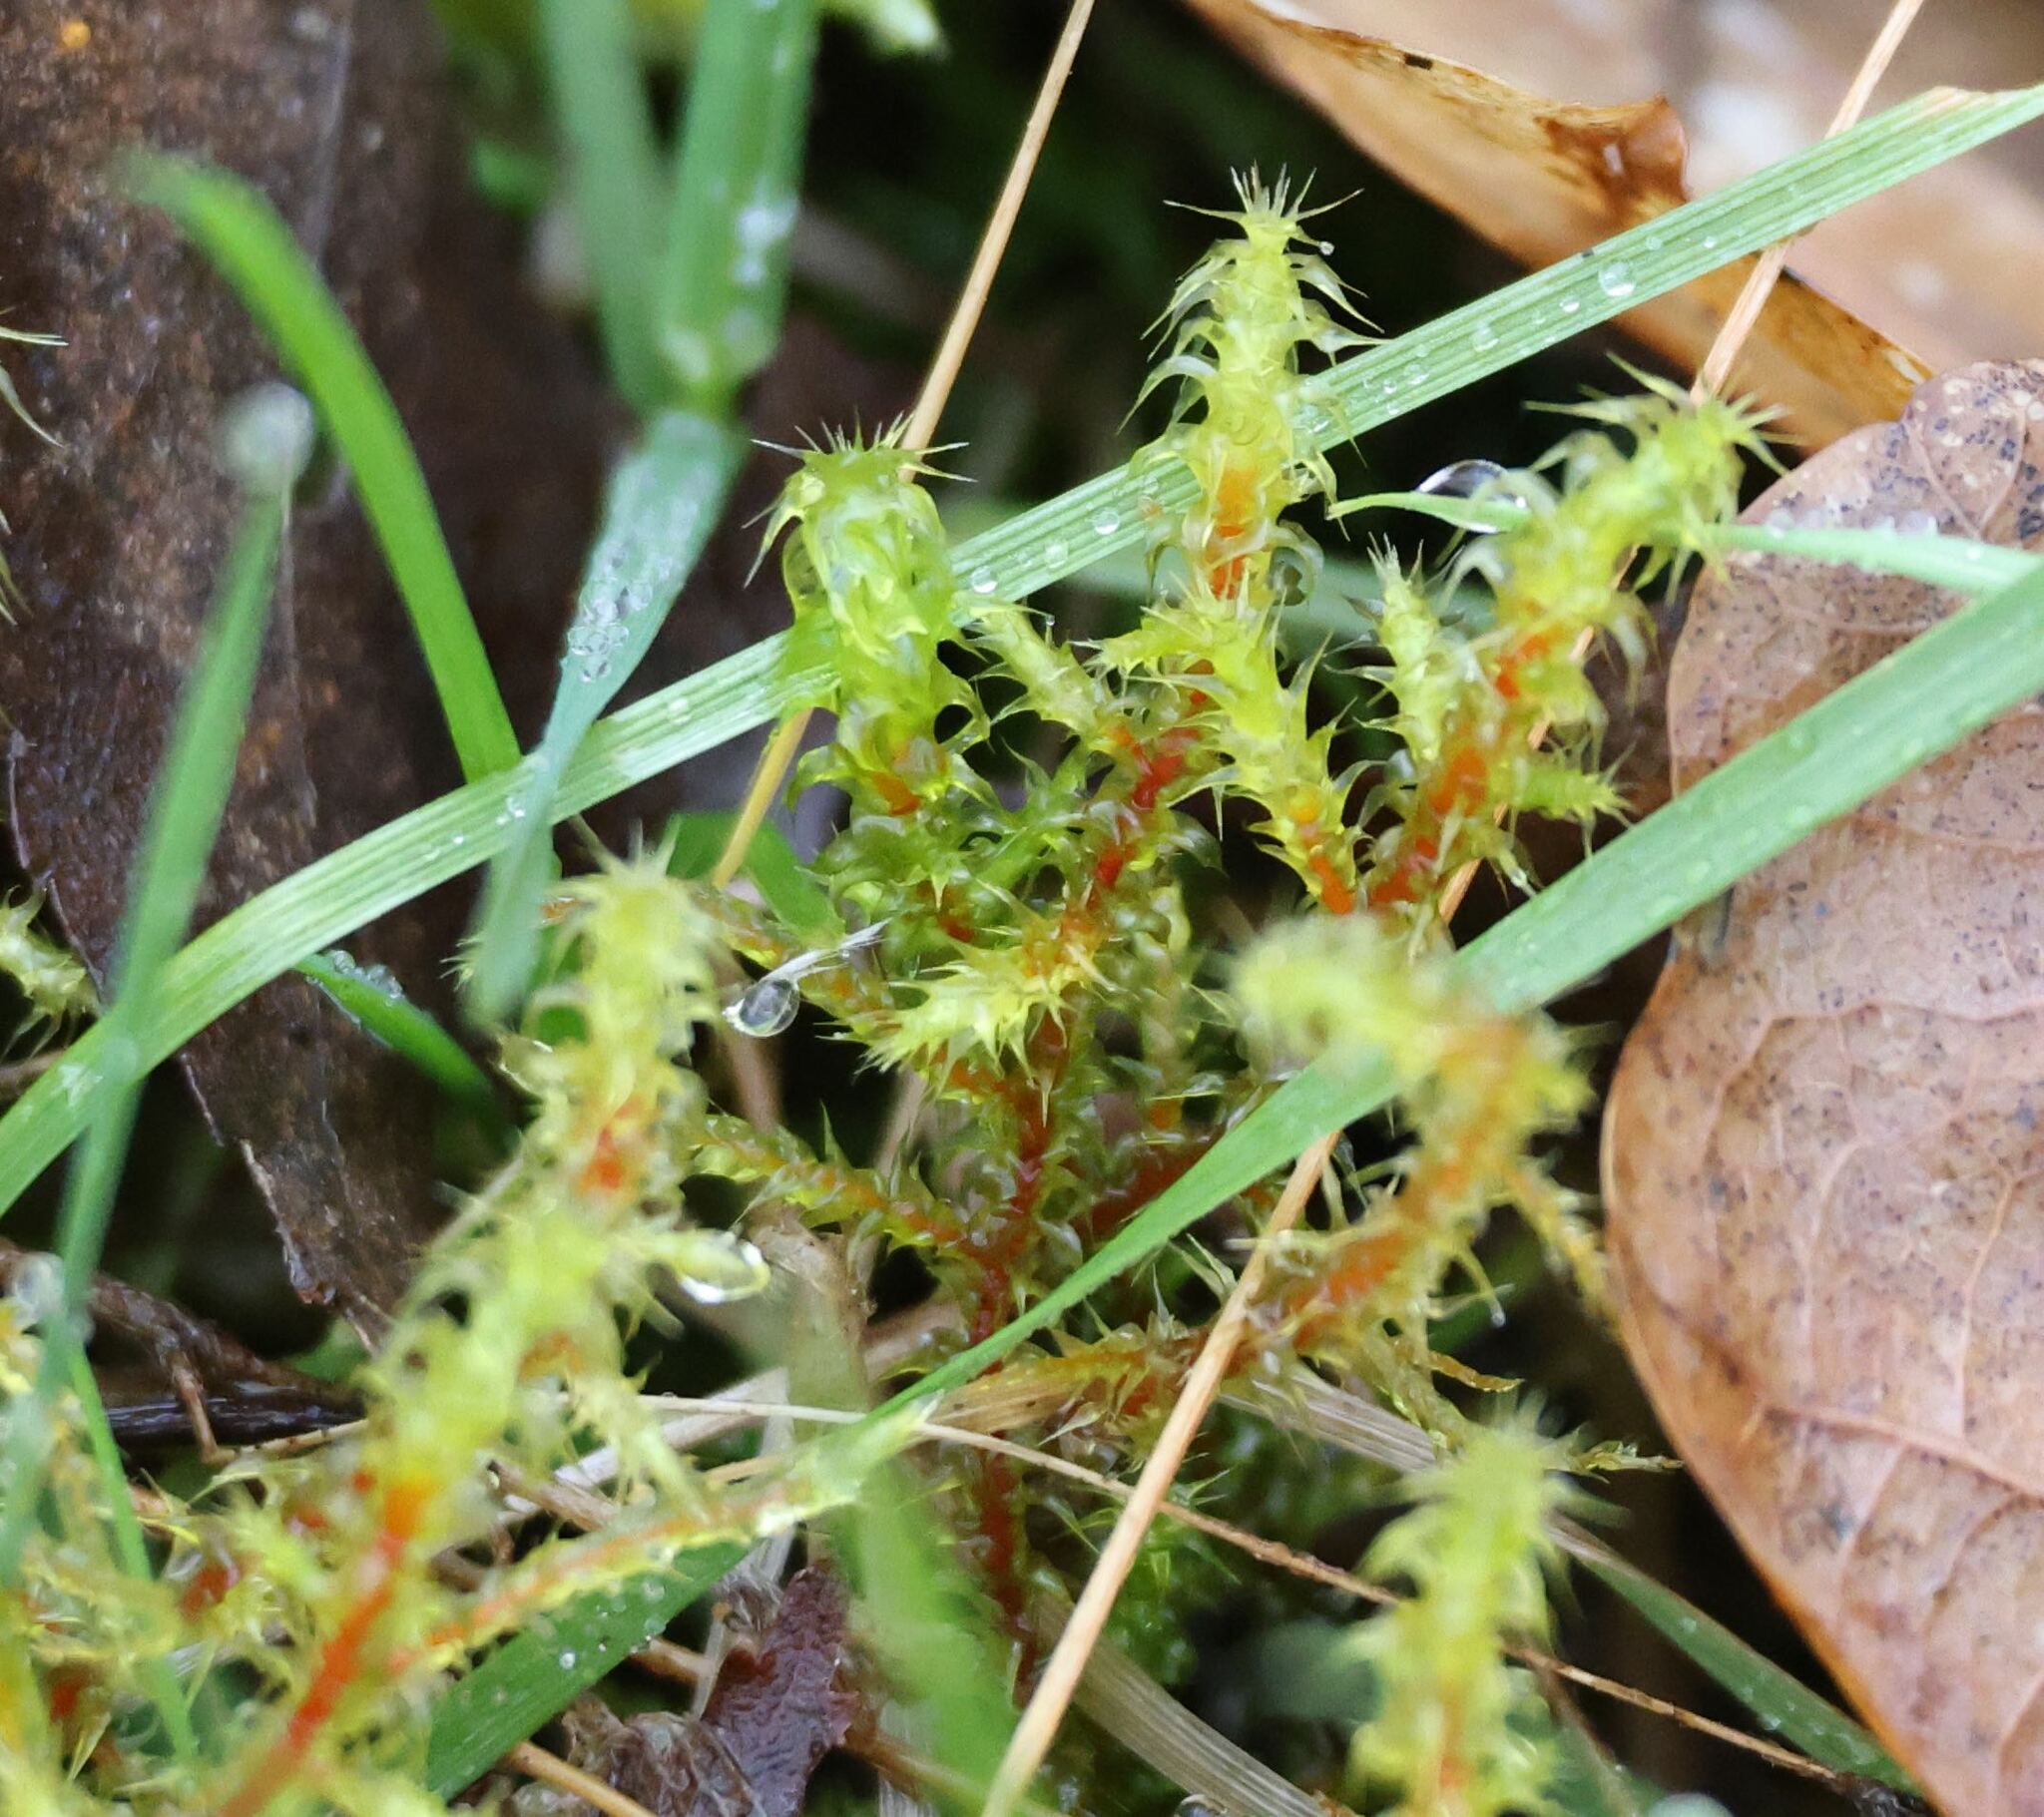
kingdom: Plantae
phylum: Bryophyta
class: Bryopsida
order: Hypnales
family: Hylocomiaceae
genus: Rhytidiadelphus
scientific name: Rhytidiadelphus squarrosus
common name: Springy turf-moss
